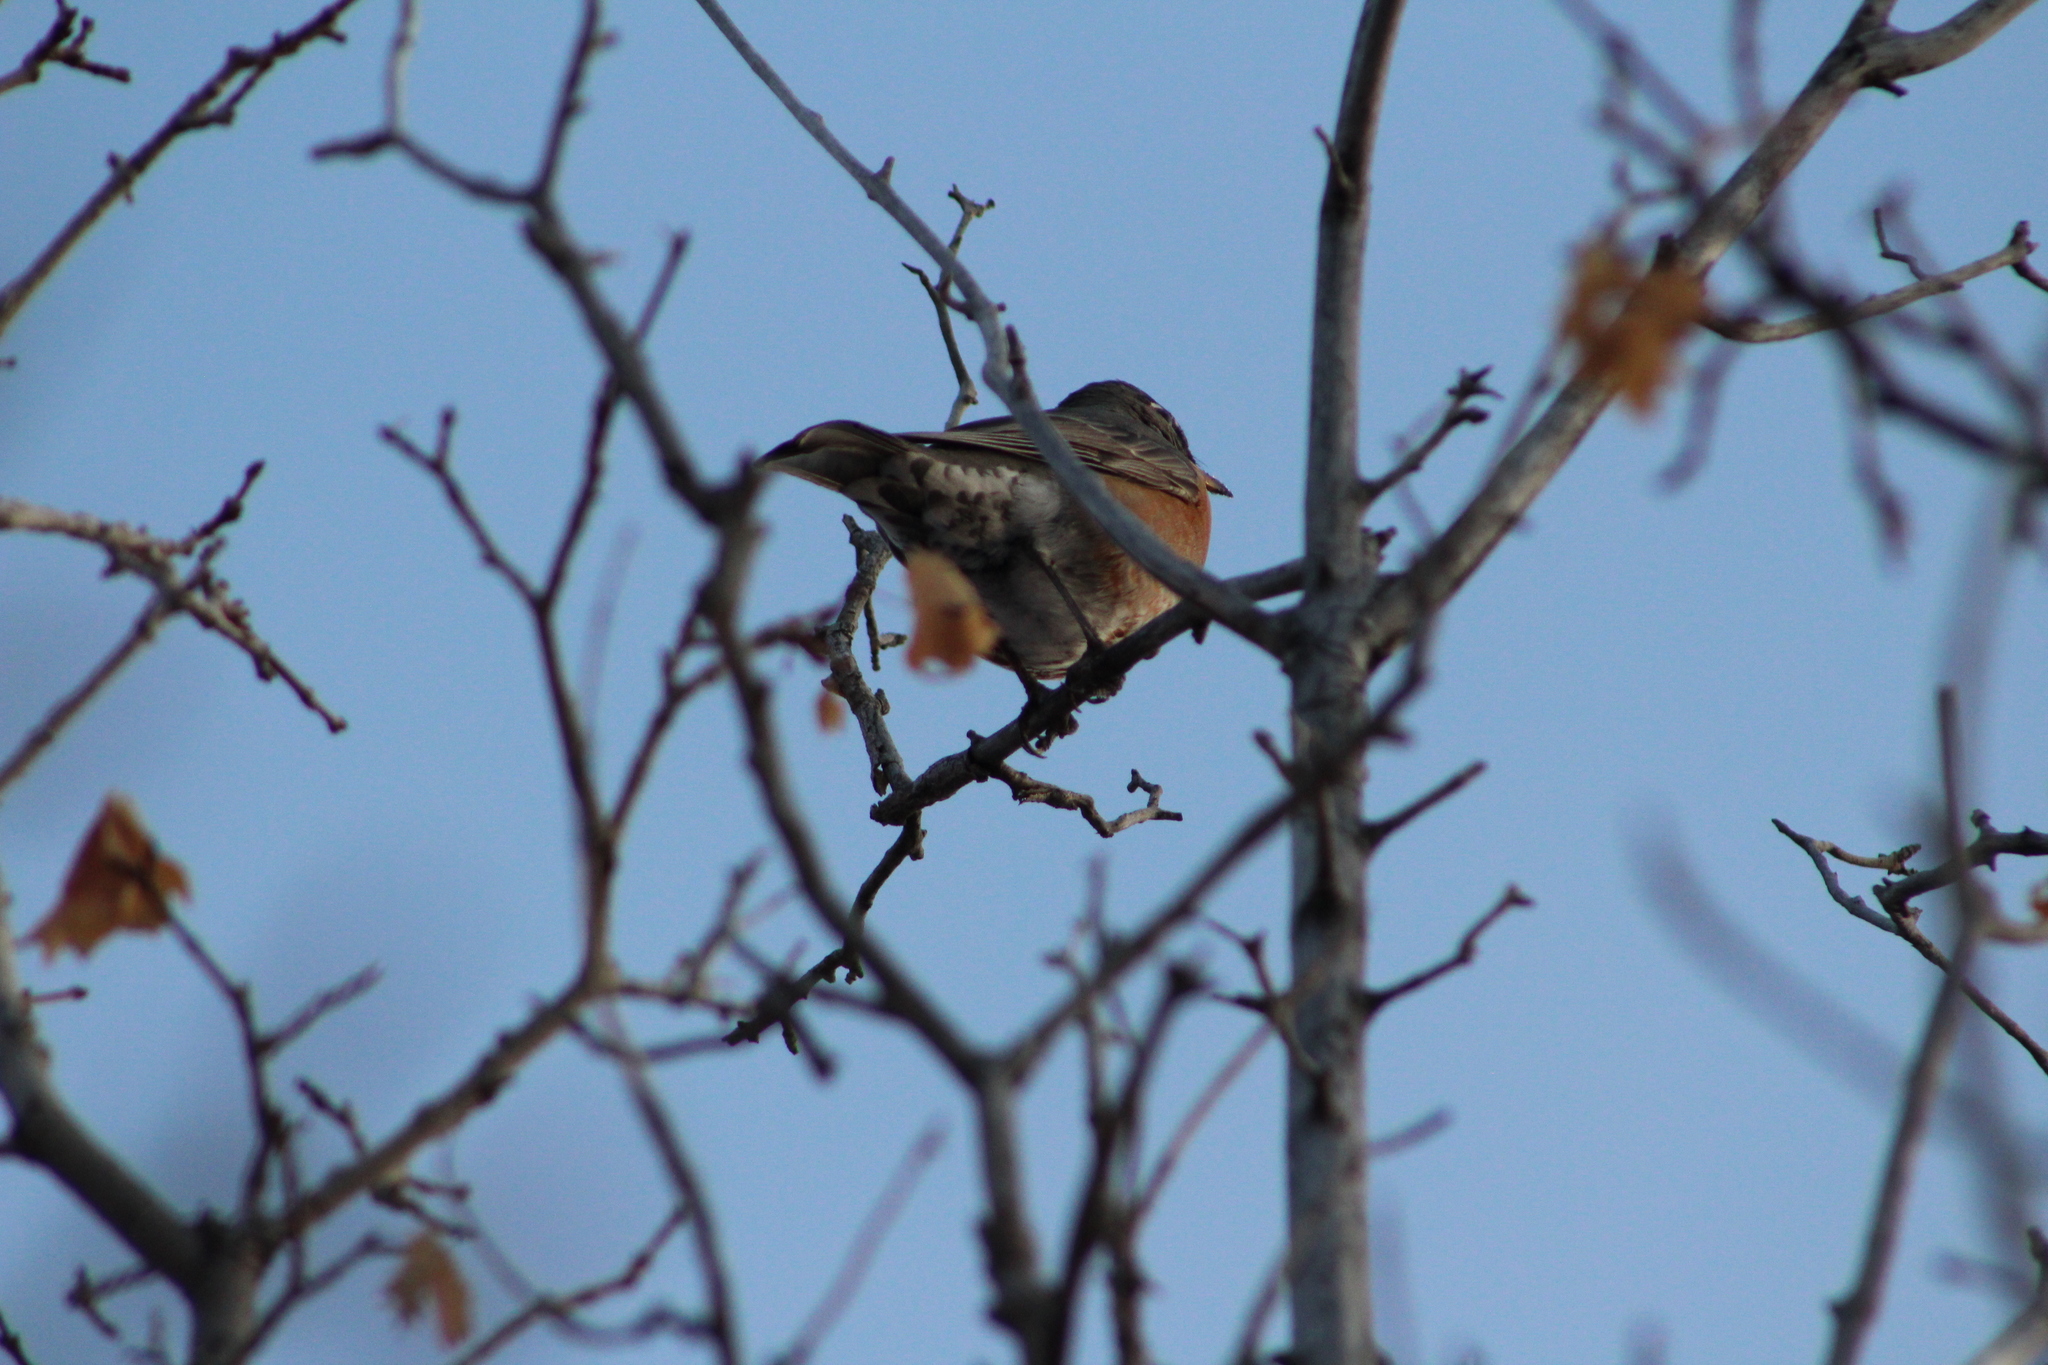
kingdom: Animalia
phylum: Chordata
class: Aves
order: Passeriformes
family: Turdidae
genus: Turdus
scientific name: Turdus migratorius
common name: American robin
